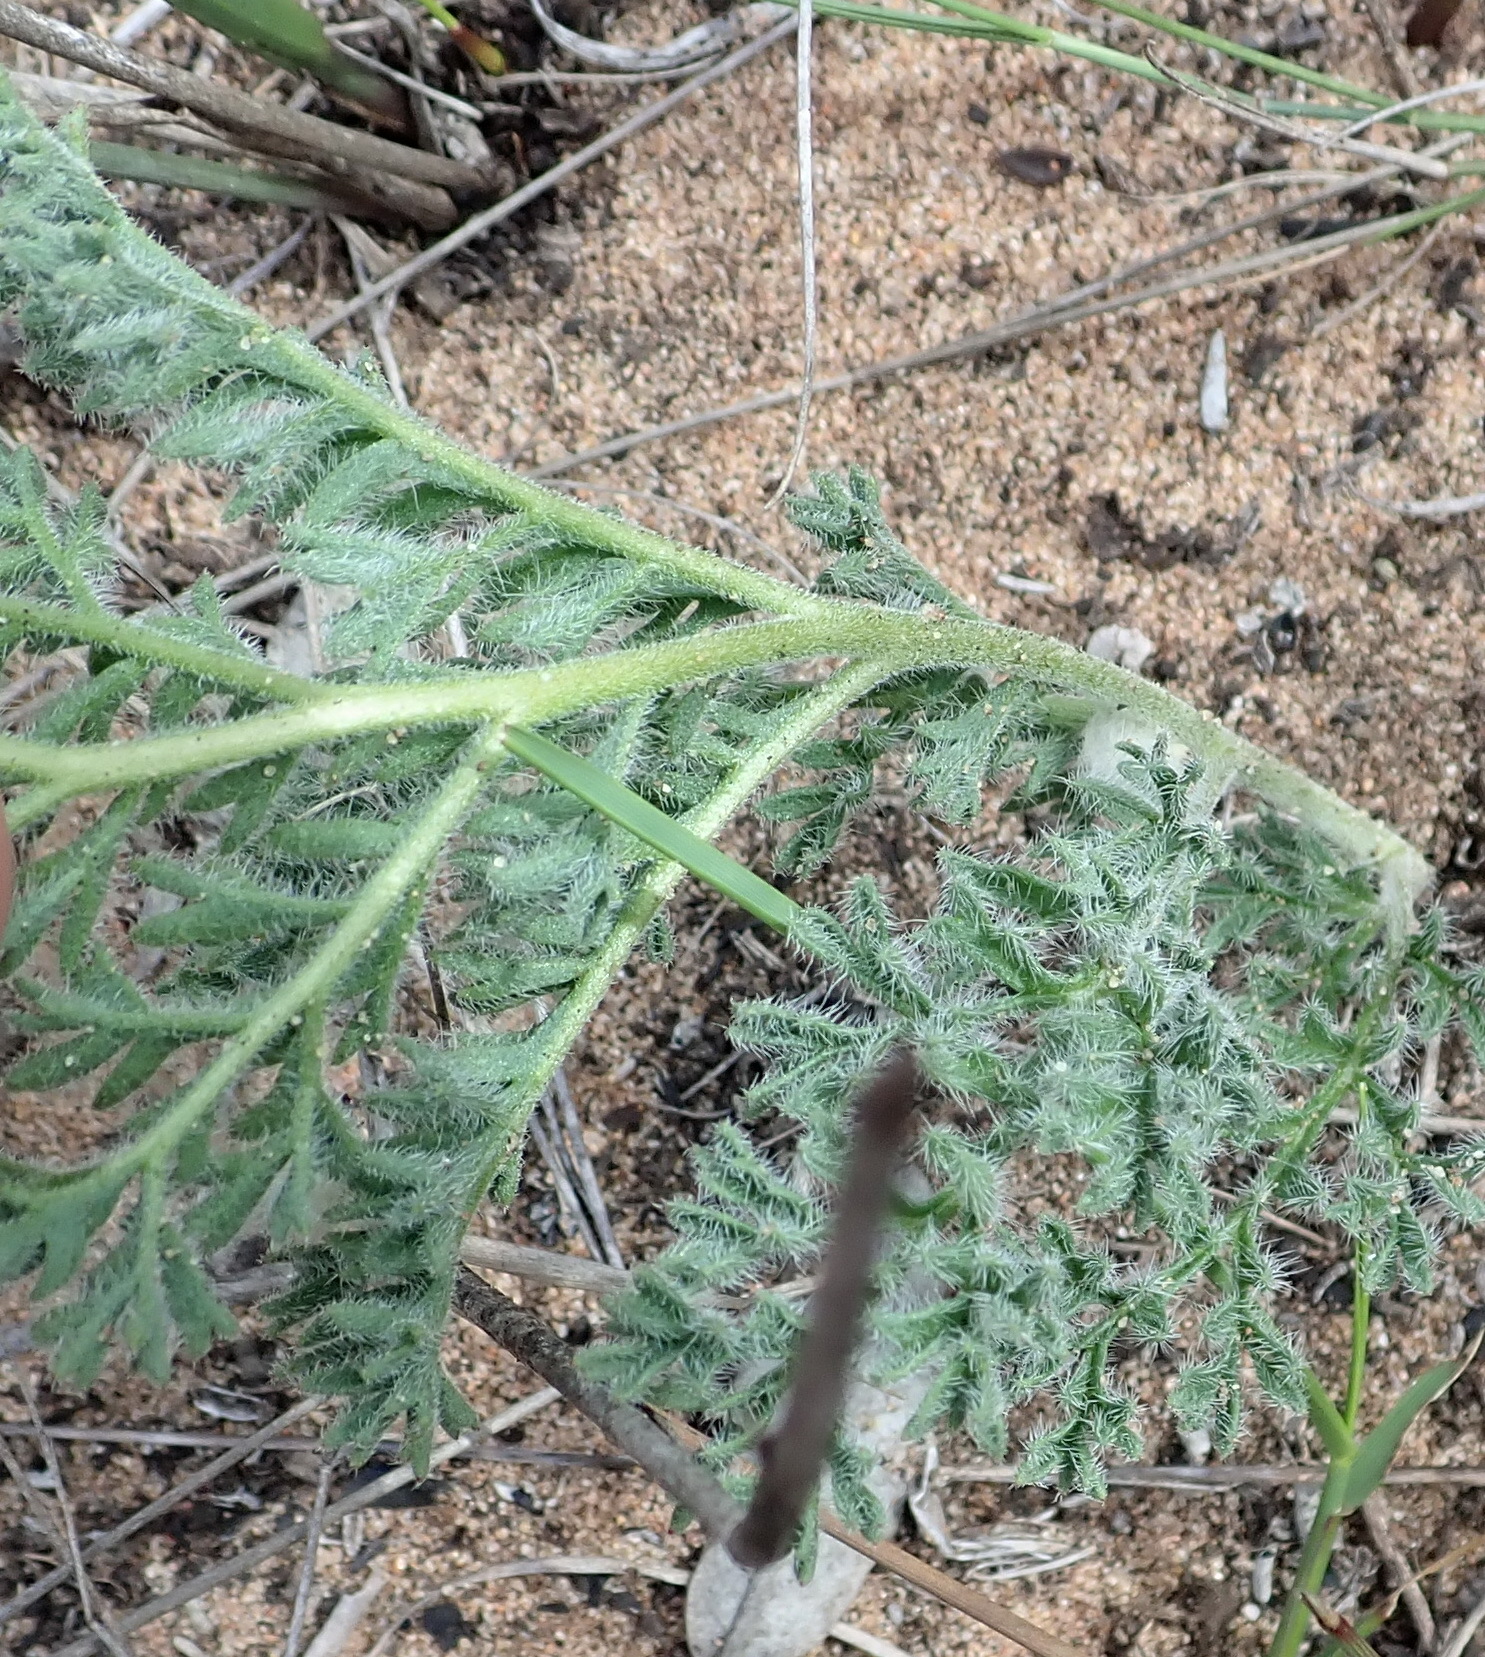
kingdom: Plantae
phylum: Tracheophyta
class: Magnoliopsida
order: Geraniales
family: Geraniaceae
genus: Pelargonium
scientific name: Pelargonium triste
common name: Night-scent pelargonium
